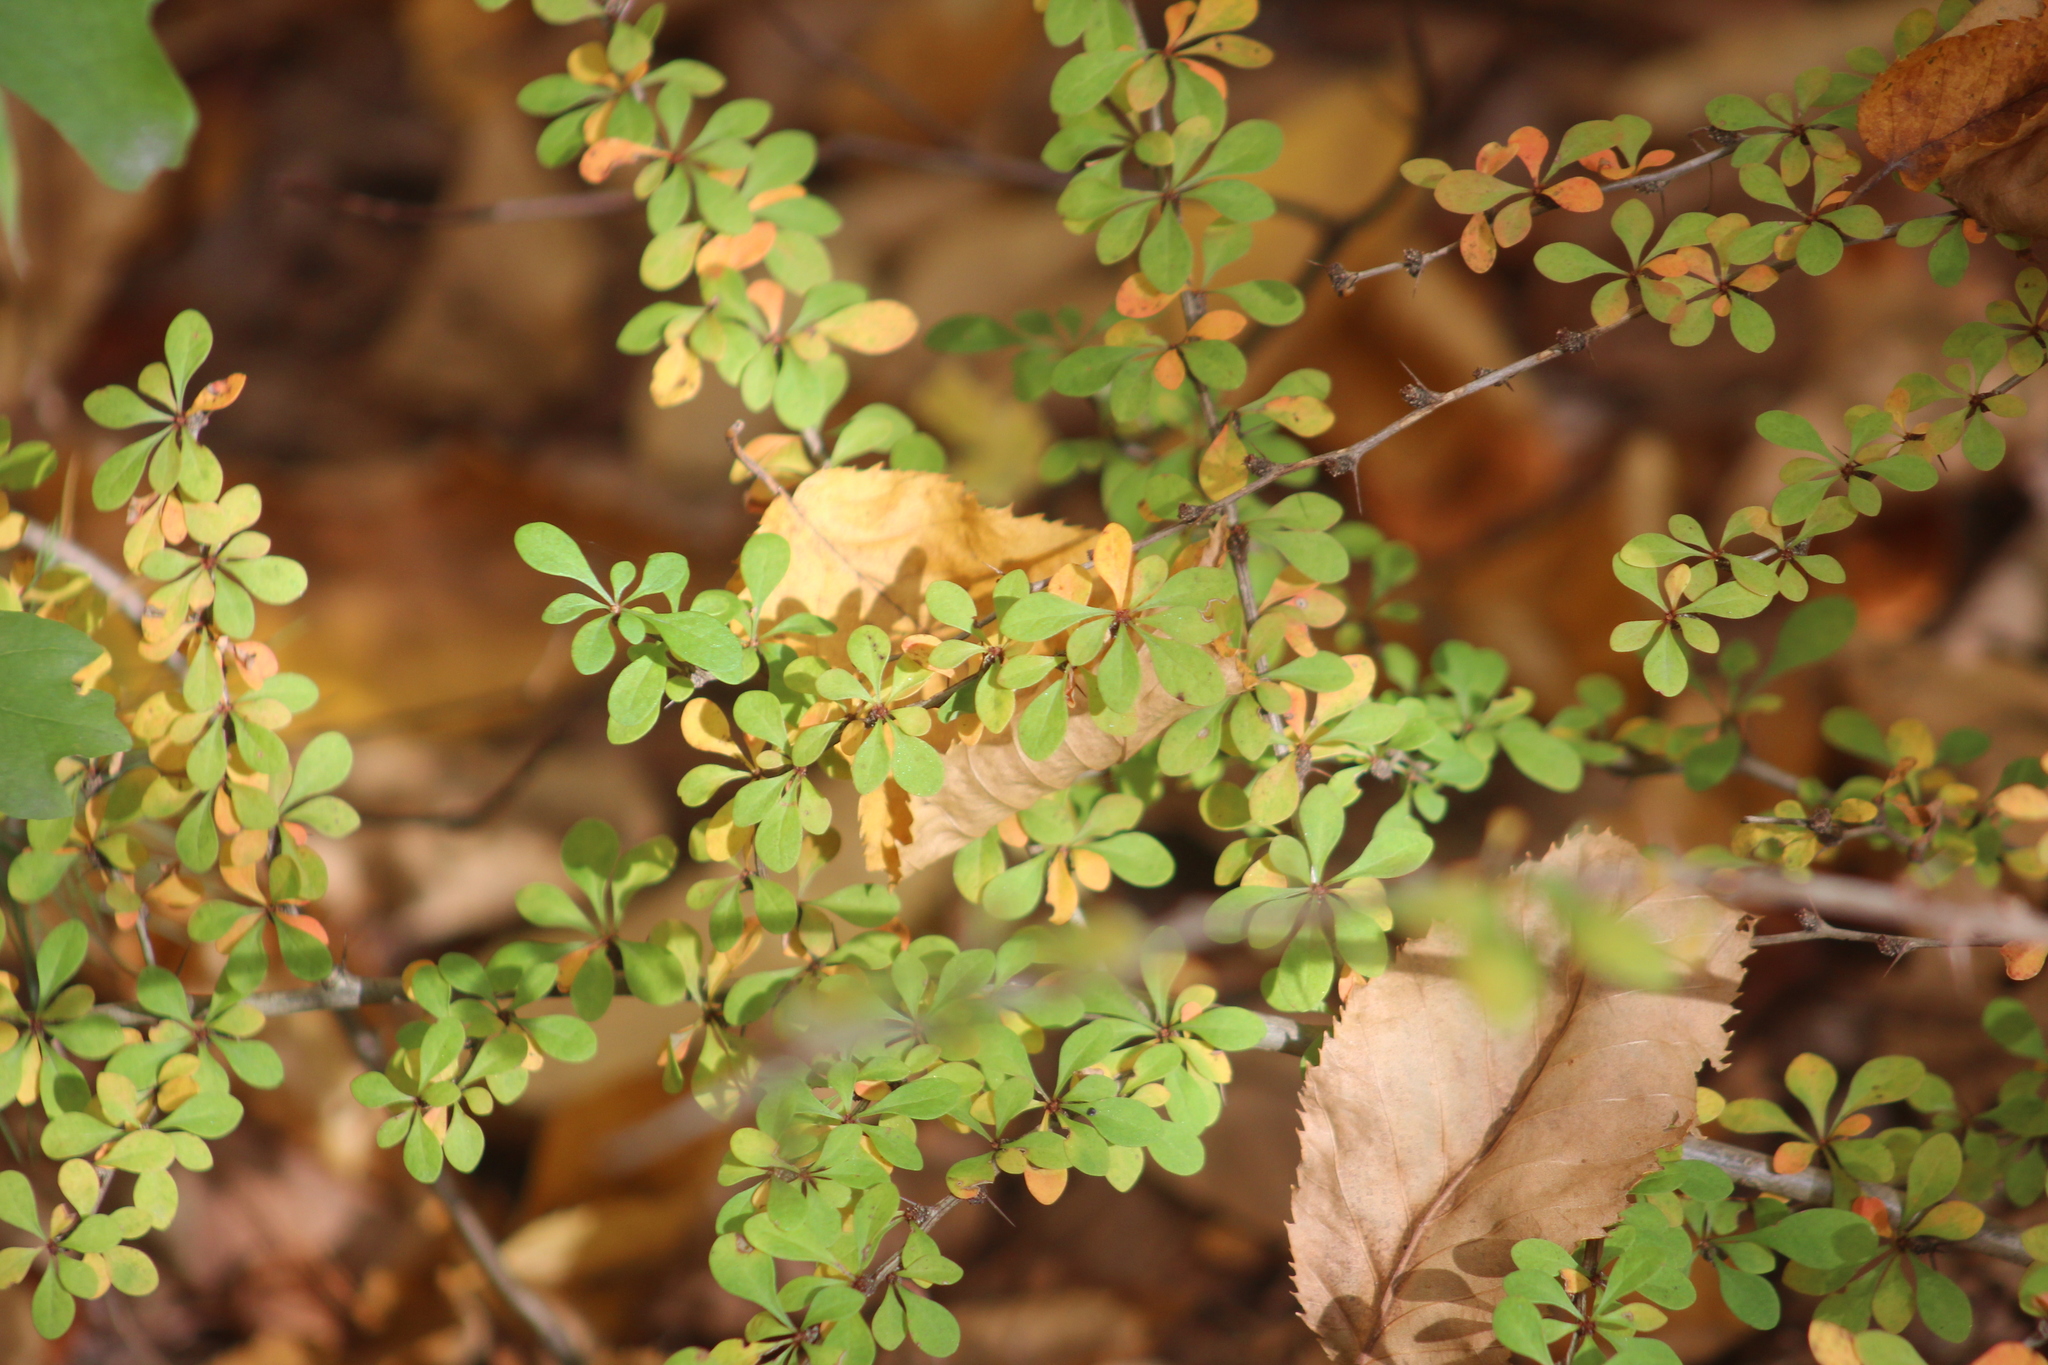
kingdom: Plantae
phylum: Tracheophyta
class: Magnoliopsida
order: Ranunculales
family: Berberidaceae
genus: Berberis
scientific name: Berberis thunbergii
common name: Japanese barberry
